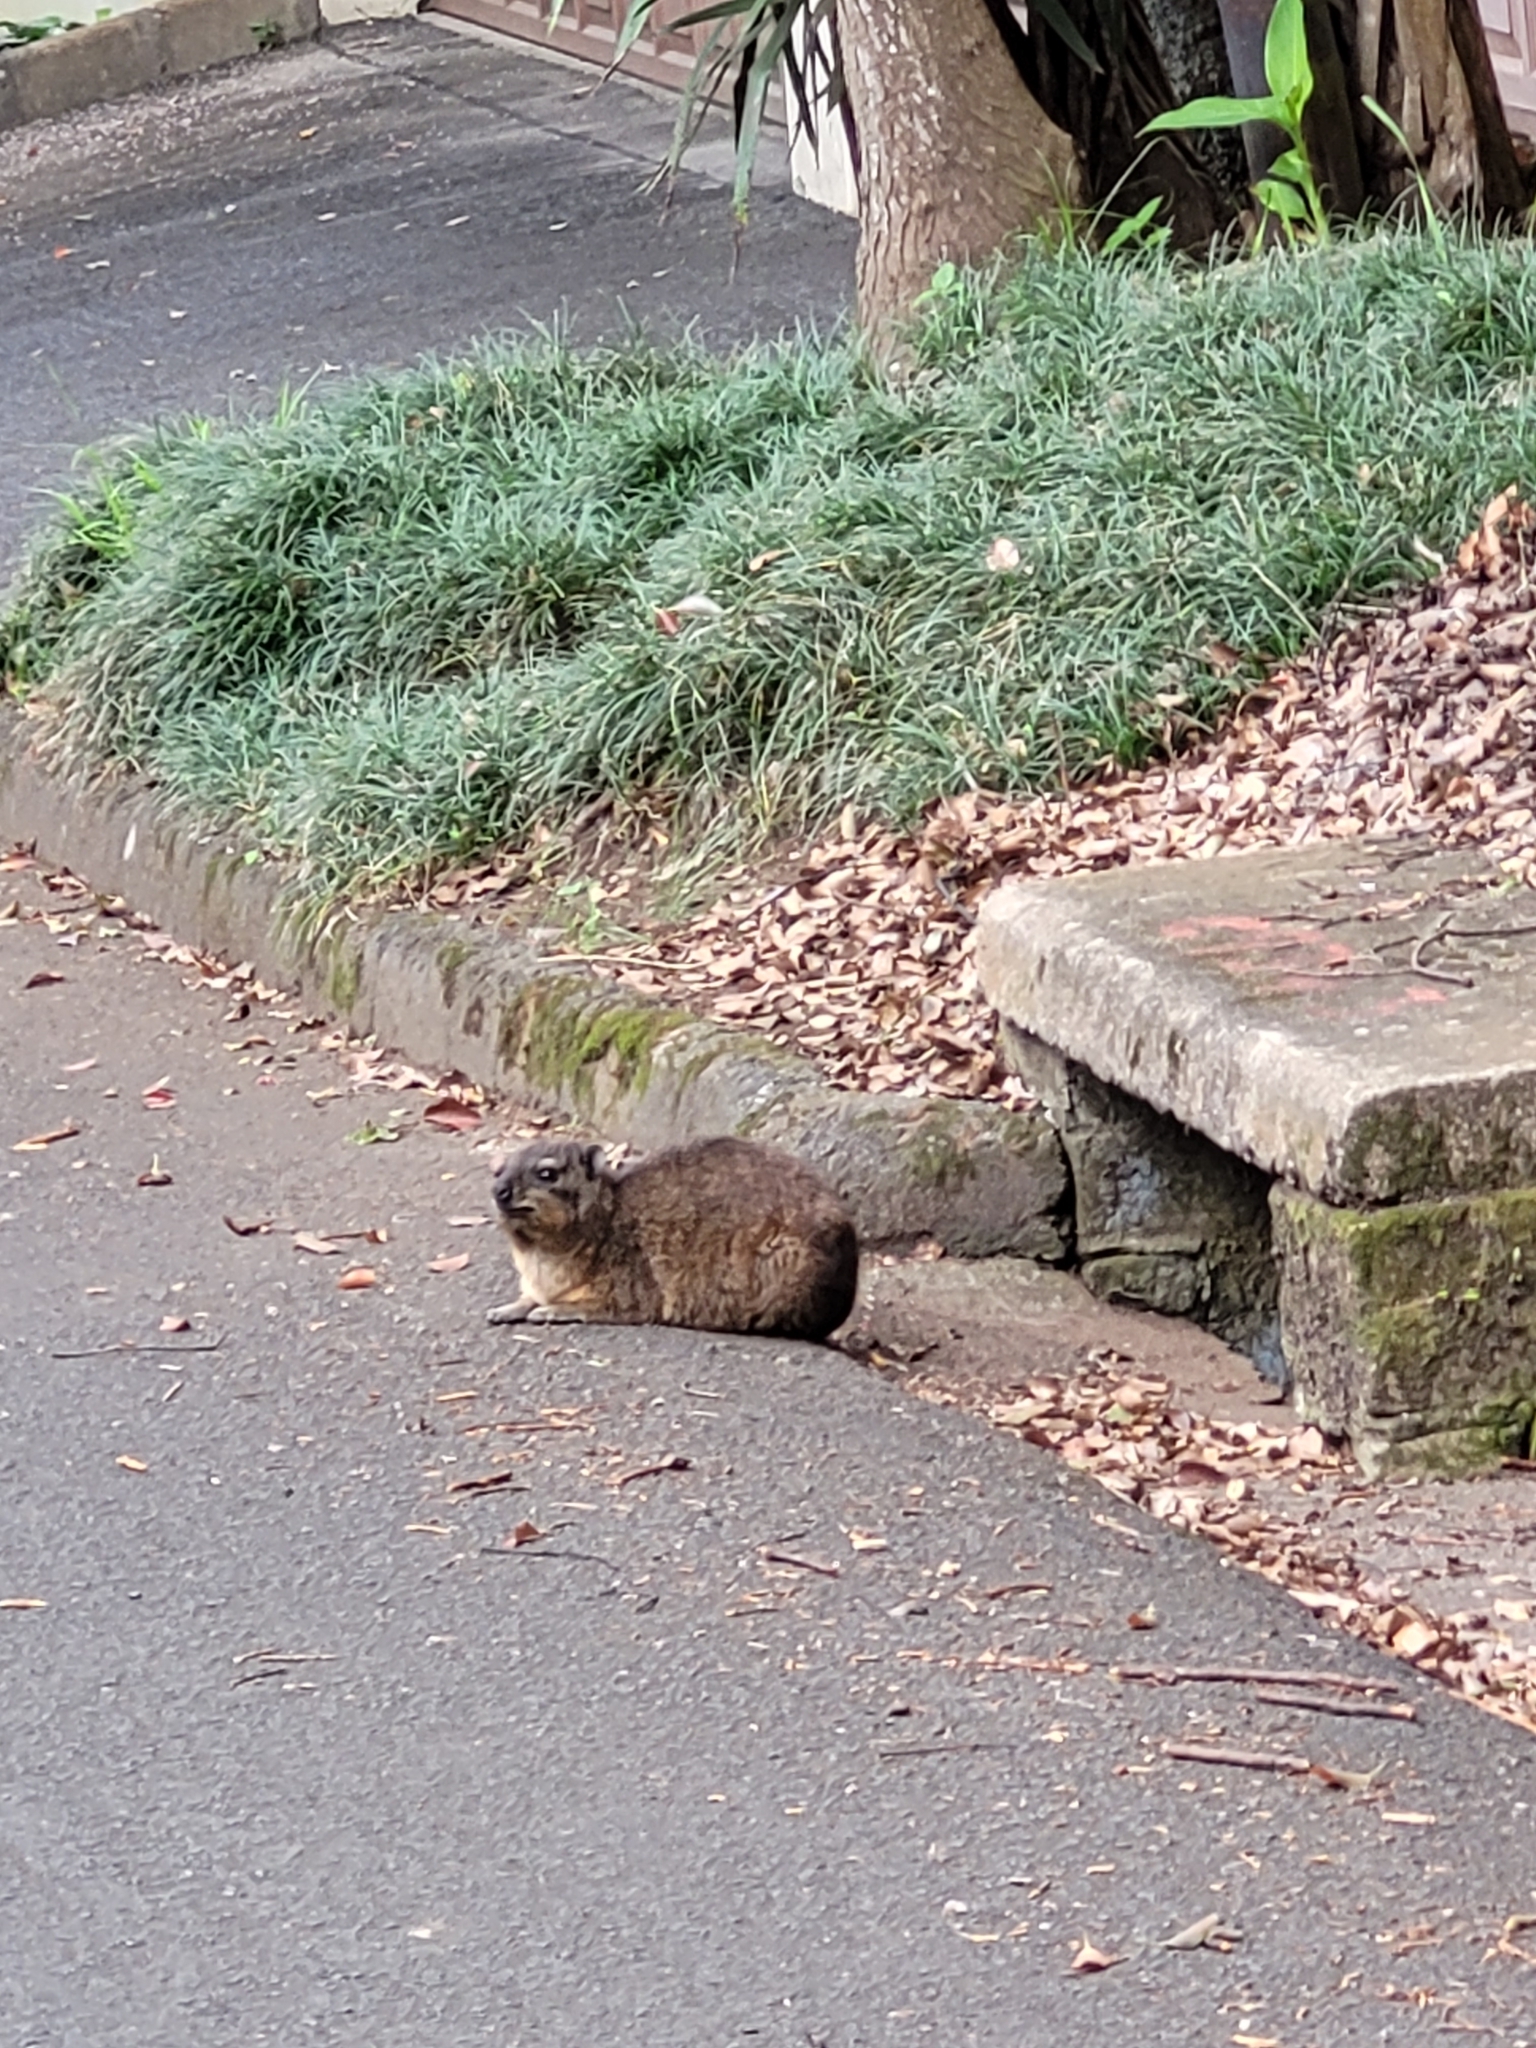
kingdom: Animalia
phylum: Chordata
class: Mammalia
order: Hyracoidea
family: Procaviidae
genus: Procavia
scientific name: Procavia capensis
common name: Rock hyrax
